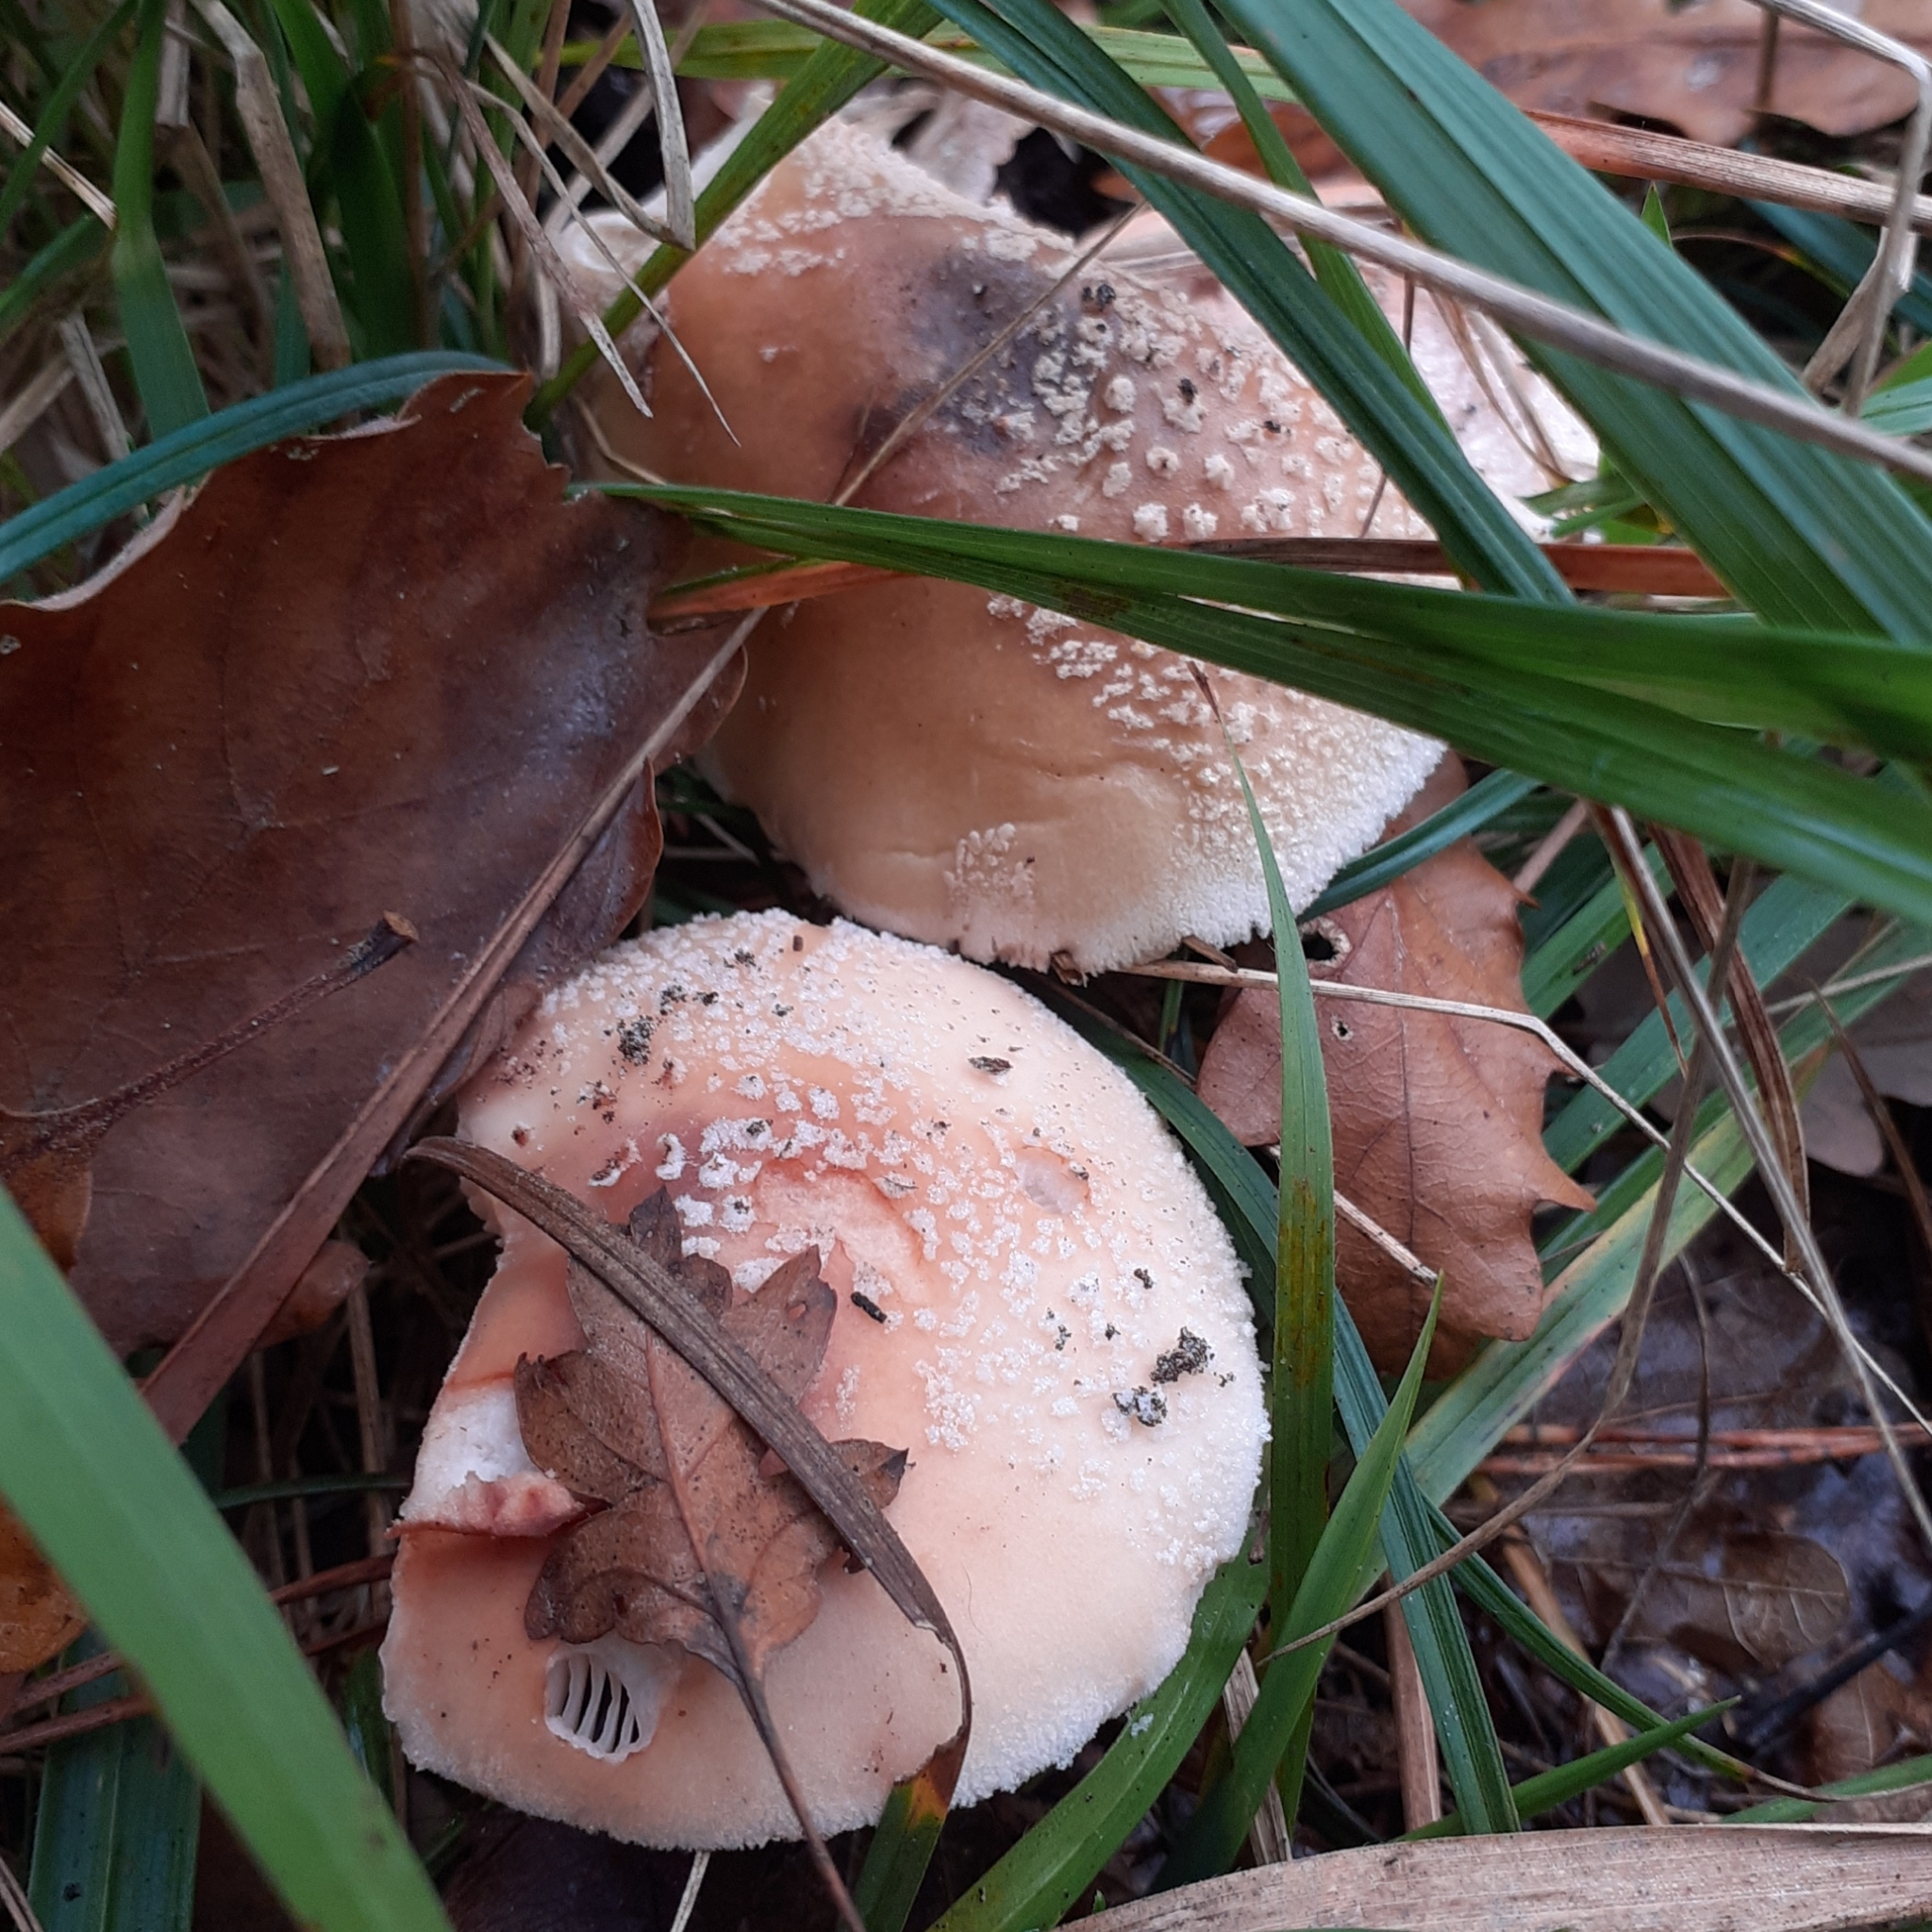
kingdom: Fungi
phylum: Basidiomycota
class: Agaricomycetes
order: Agaricales
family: Amanitaceae
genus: Amanita
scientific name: Amanita rubescens
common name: Blusher
